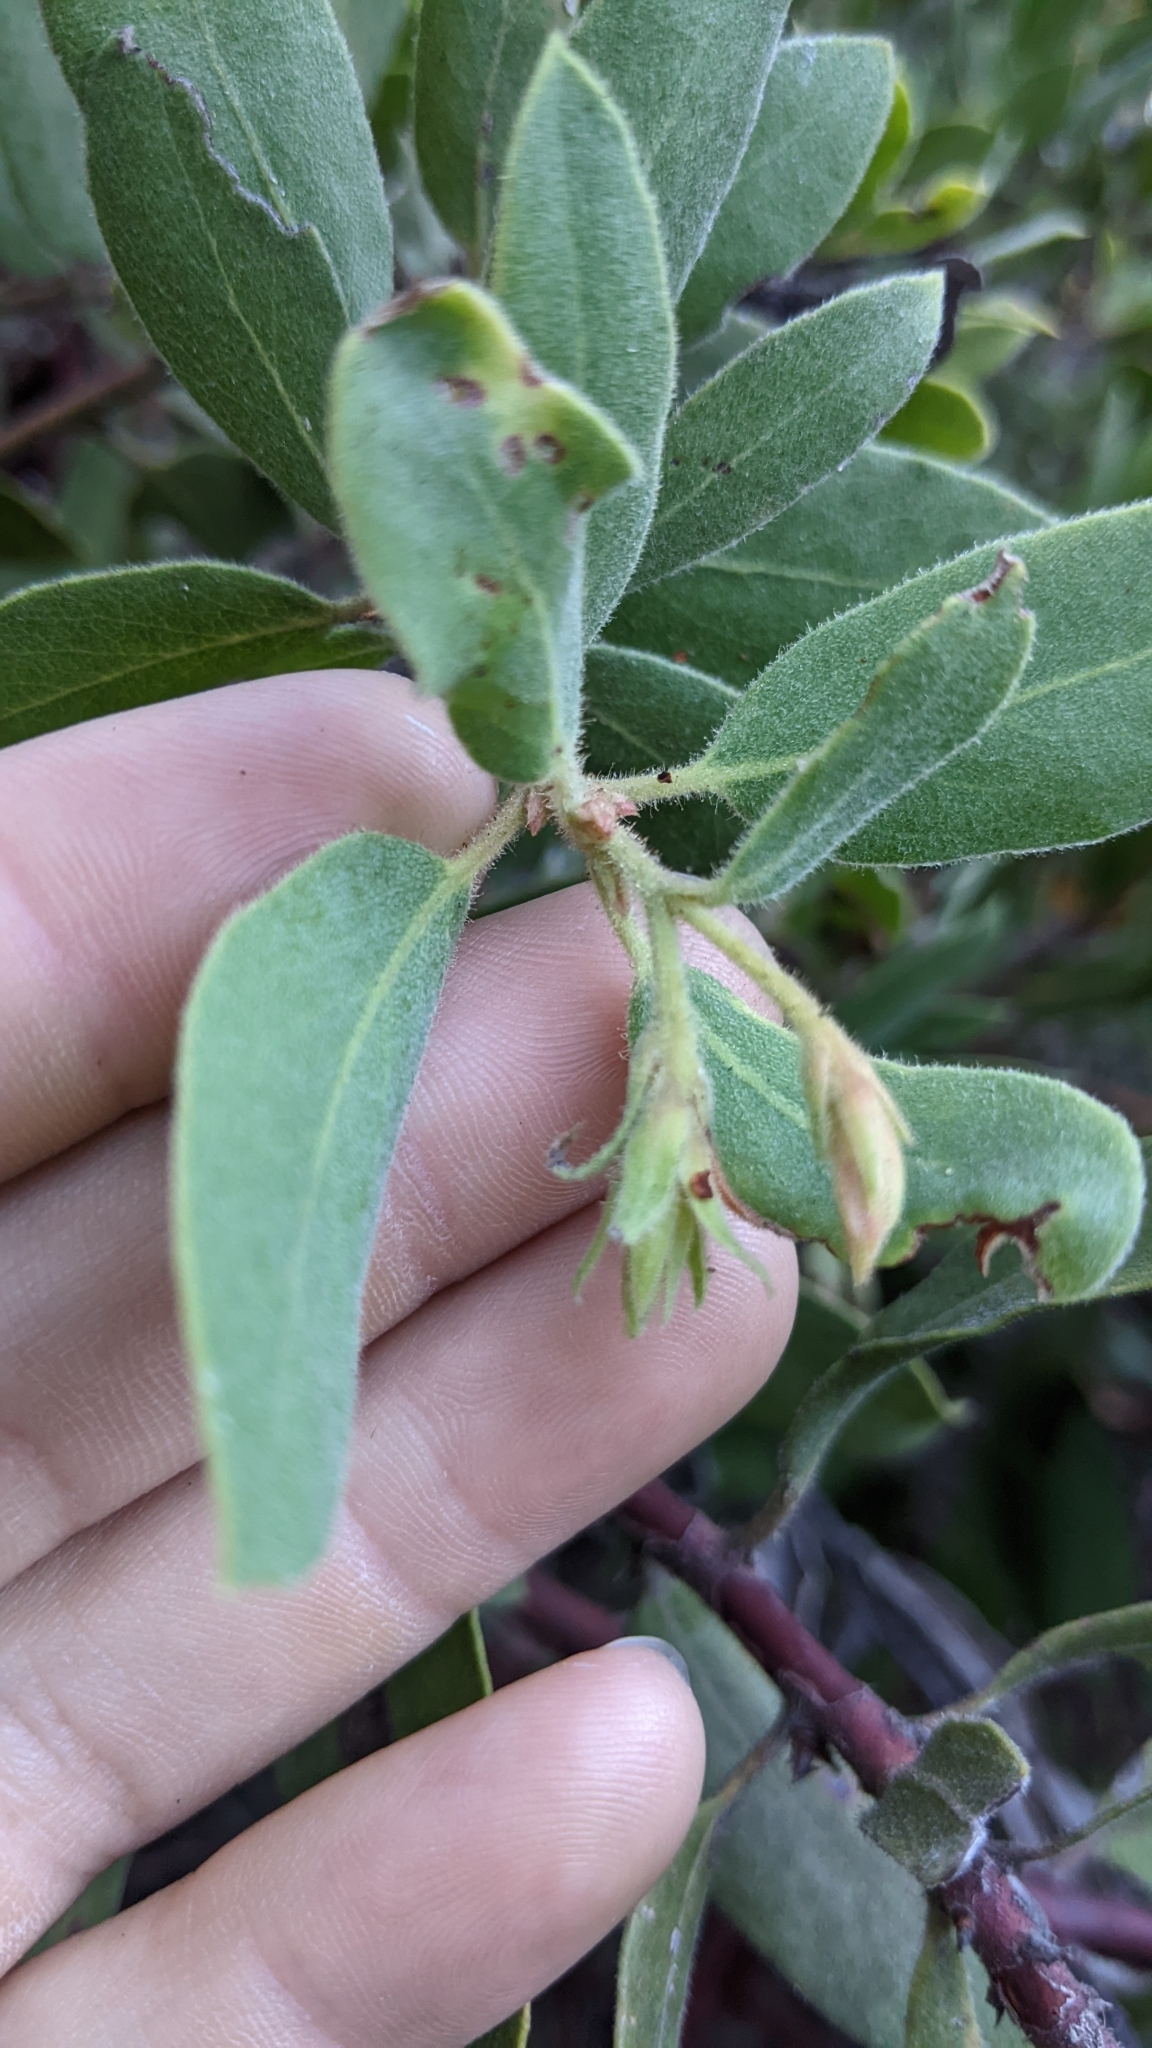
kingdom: Plantae
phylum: Tracheophyta
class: Magnoliopsida
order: Ericales
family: Ericaceae
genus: Arctostaphylos
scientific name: Arctostaphylos glandulosa
